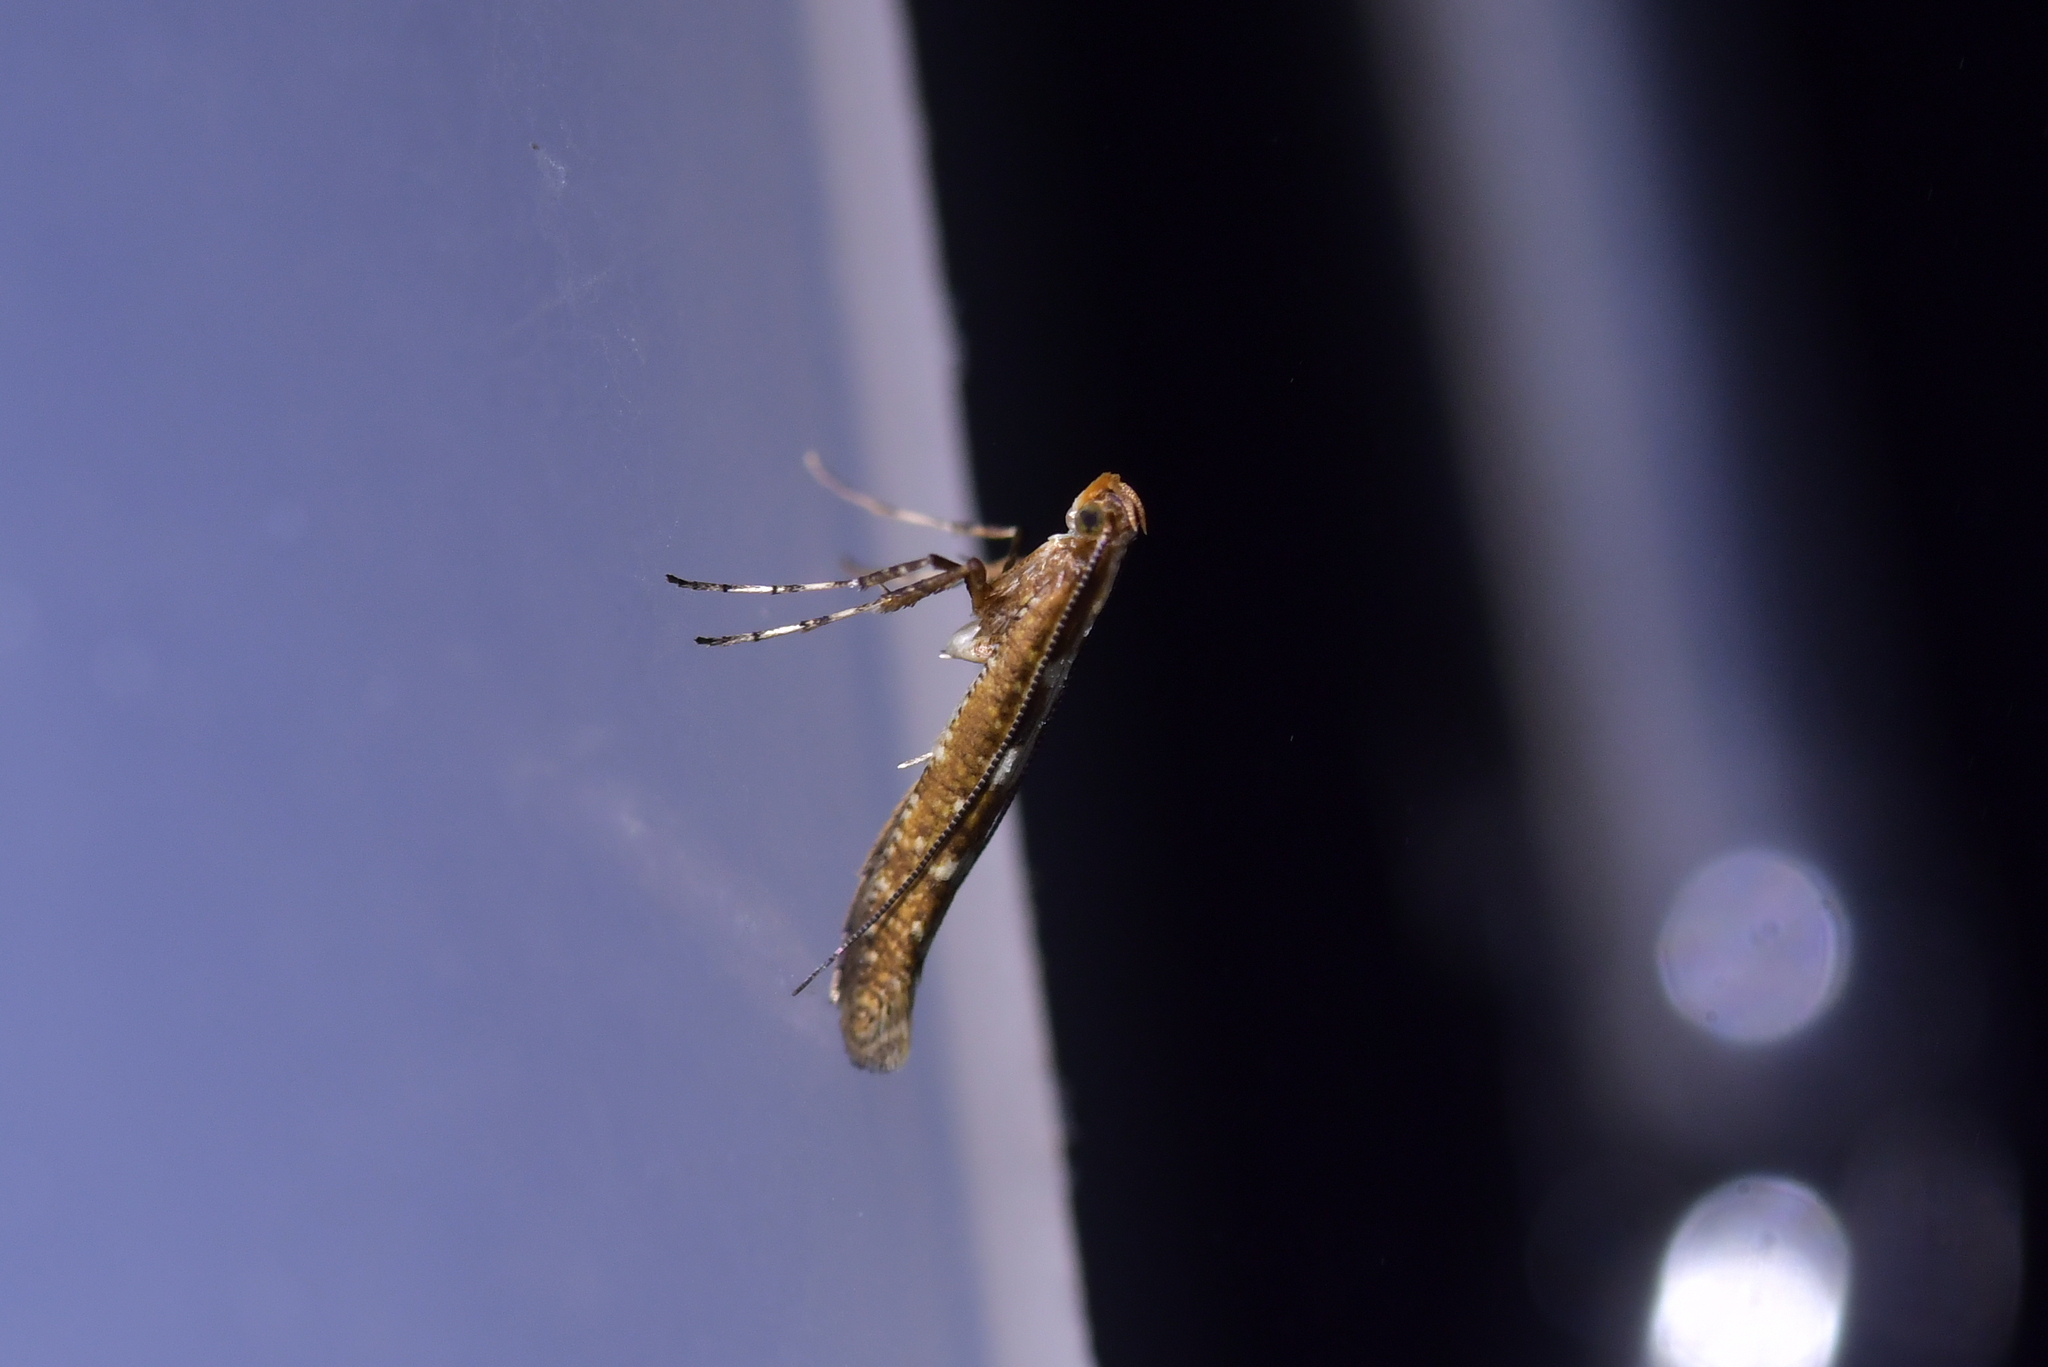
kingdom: Animalia
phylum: Arthropoda
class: Insecta
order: Lepidoptera
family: Gracillariidae
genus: Caloptilia
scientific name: Caloptilia selenitis
